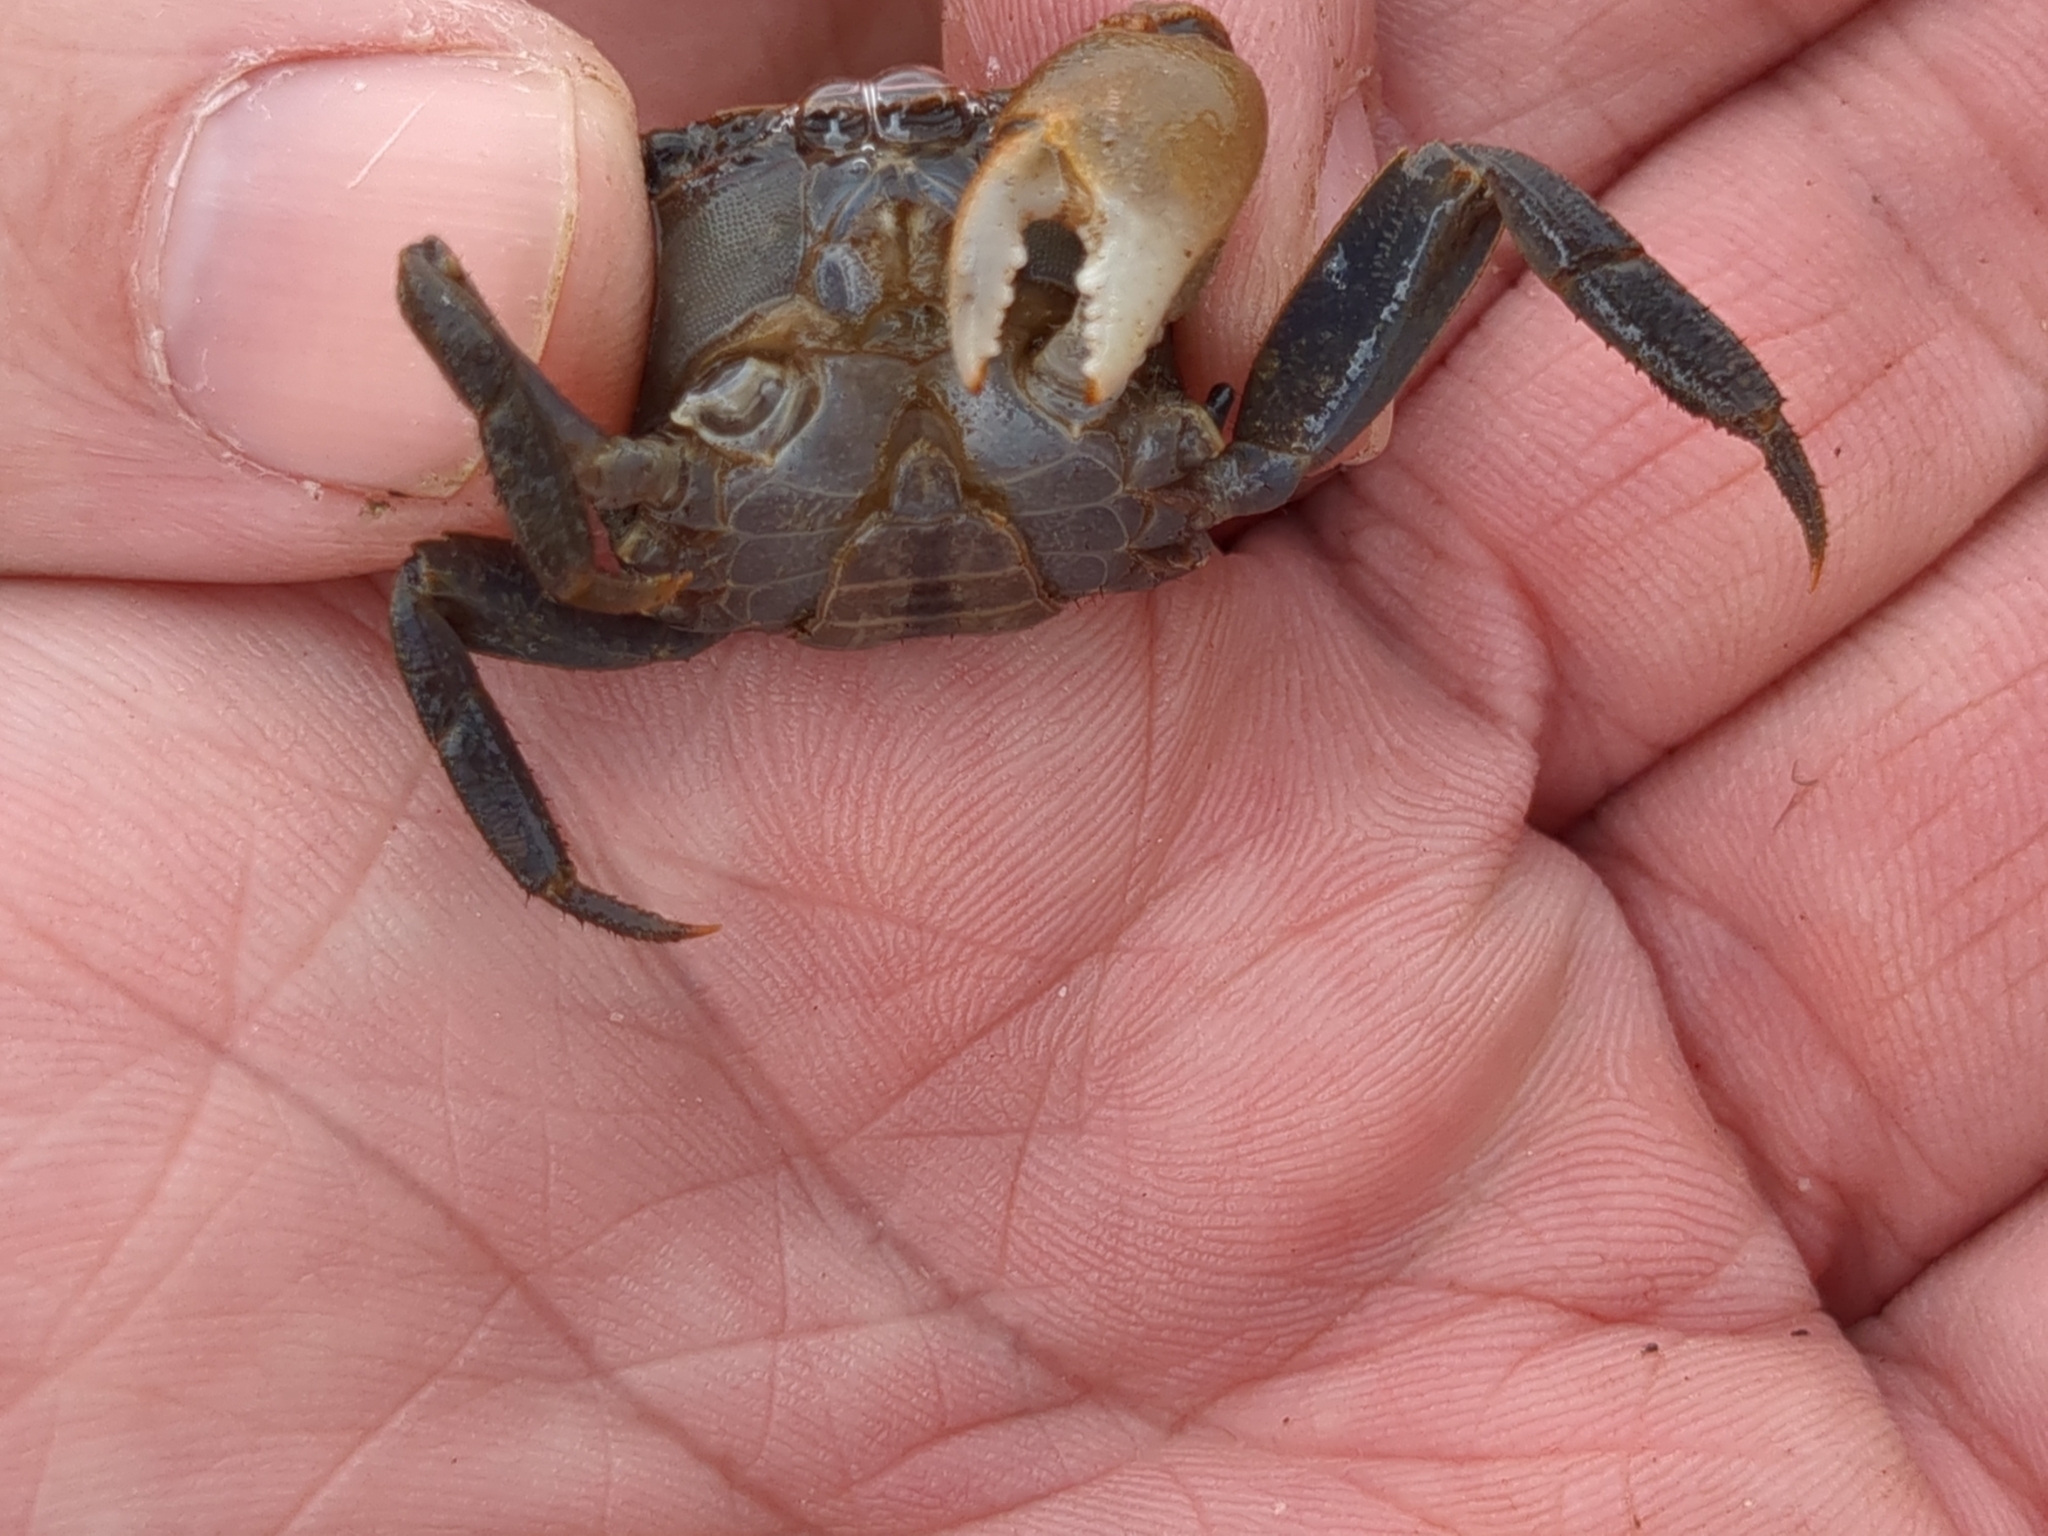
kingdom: Animalia
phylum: Arthropoda
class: Malacostraca
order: Decapoda
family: Sesarmidae
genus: Armases
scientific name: Armases cinereum
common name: Squareback marsh crab
